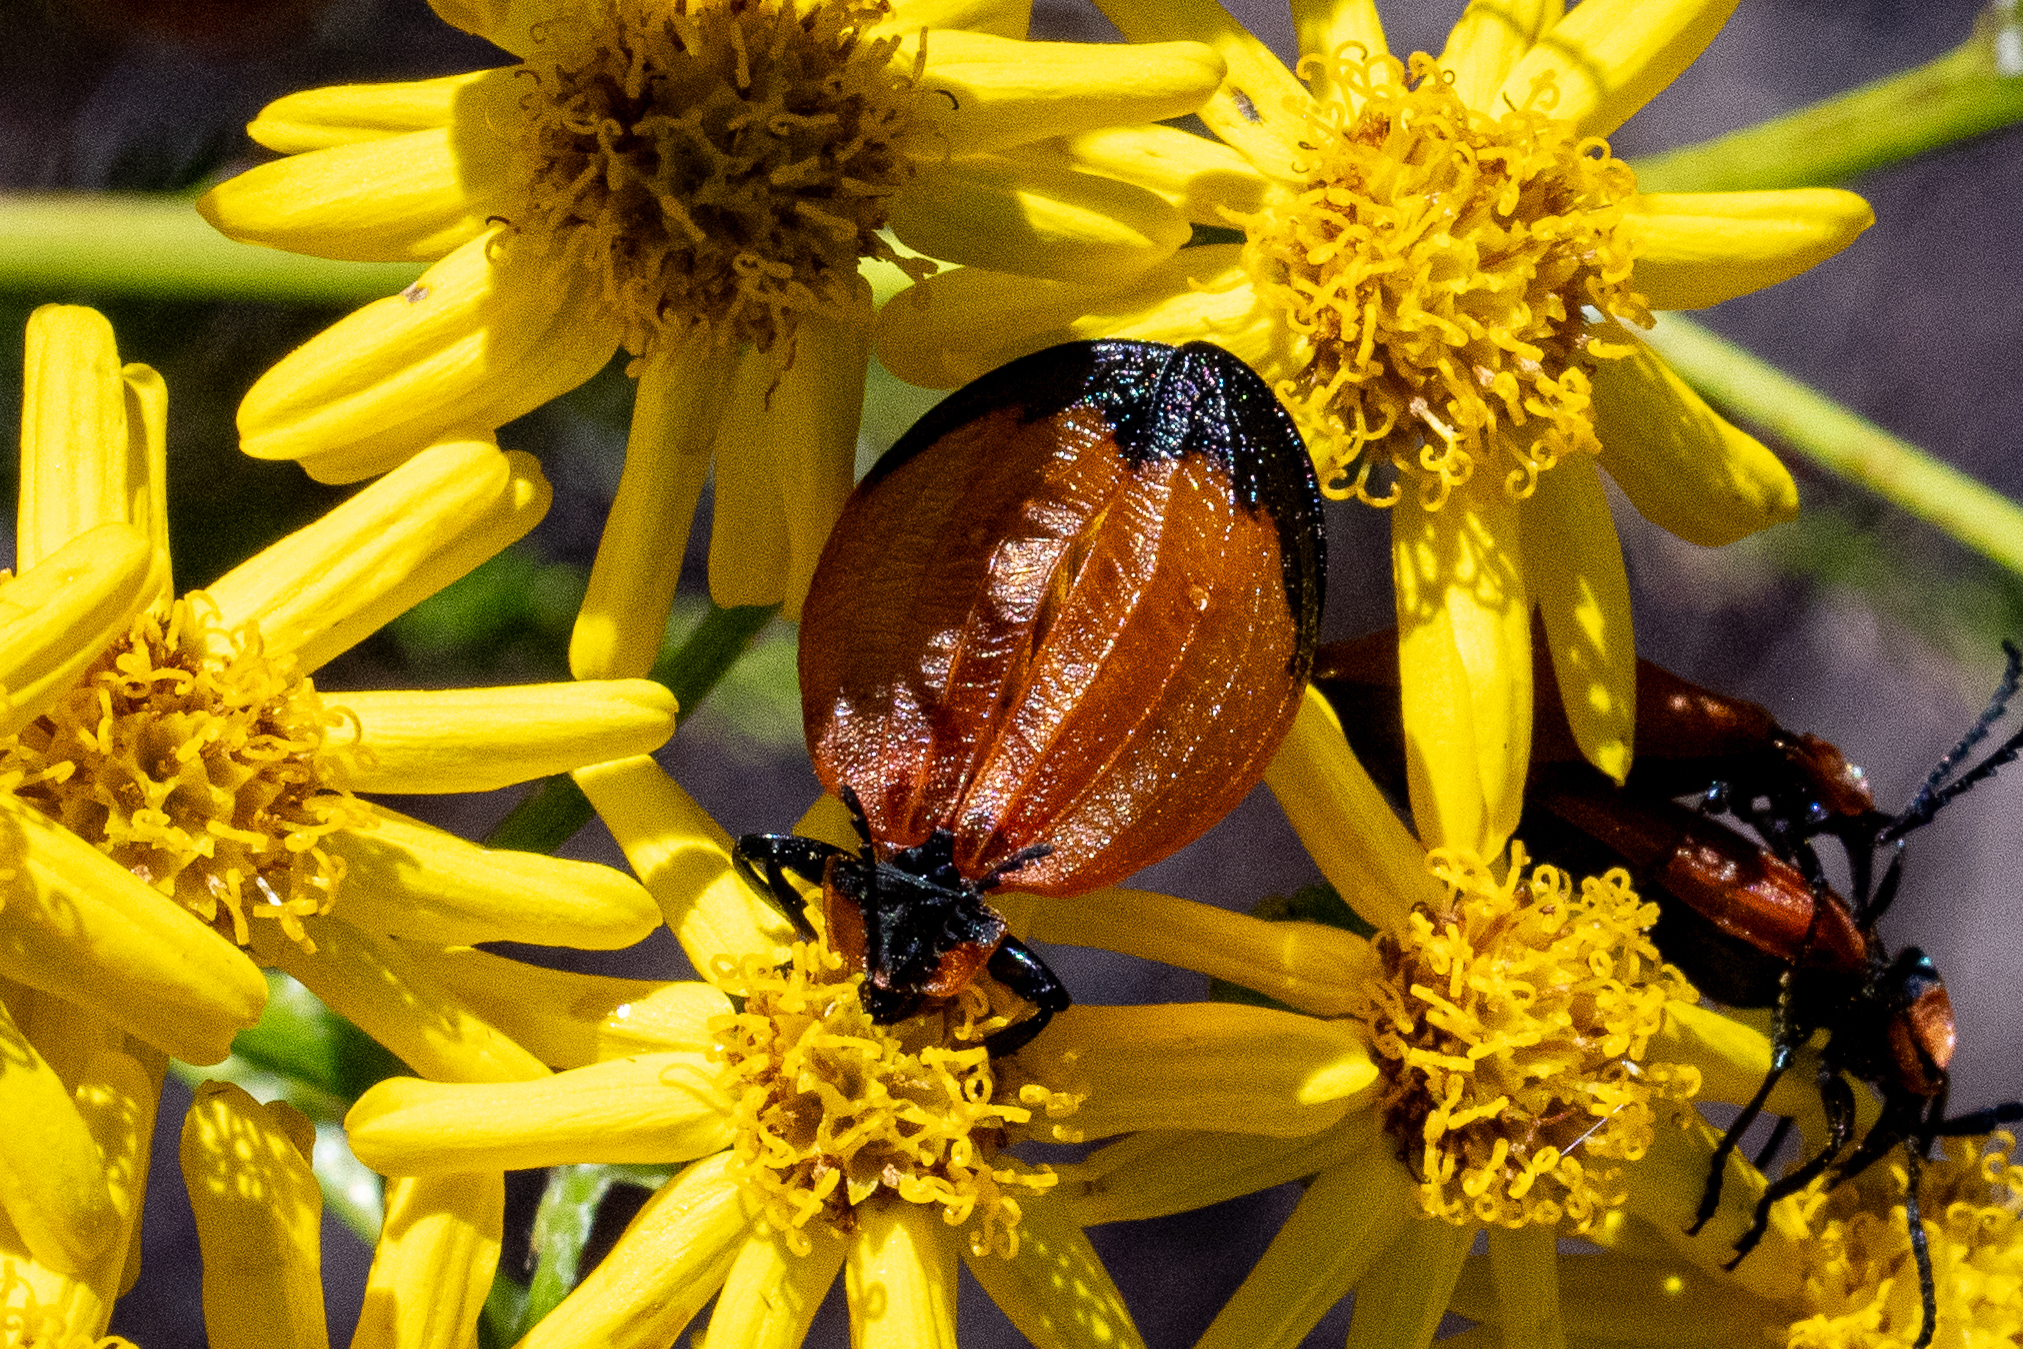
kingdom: Animalia
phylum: Arthropoda
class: Insecta
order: Coleoptera
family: Lycidae
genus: Lycus
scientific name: Lycus
